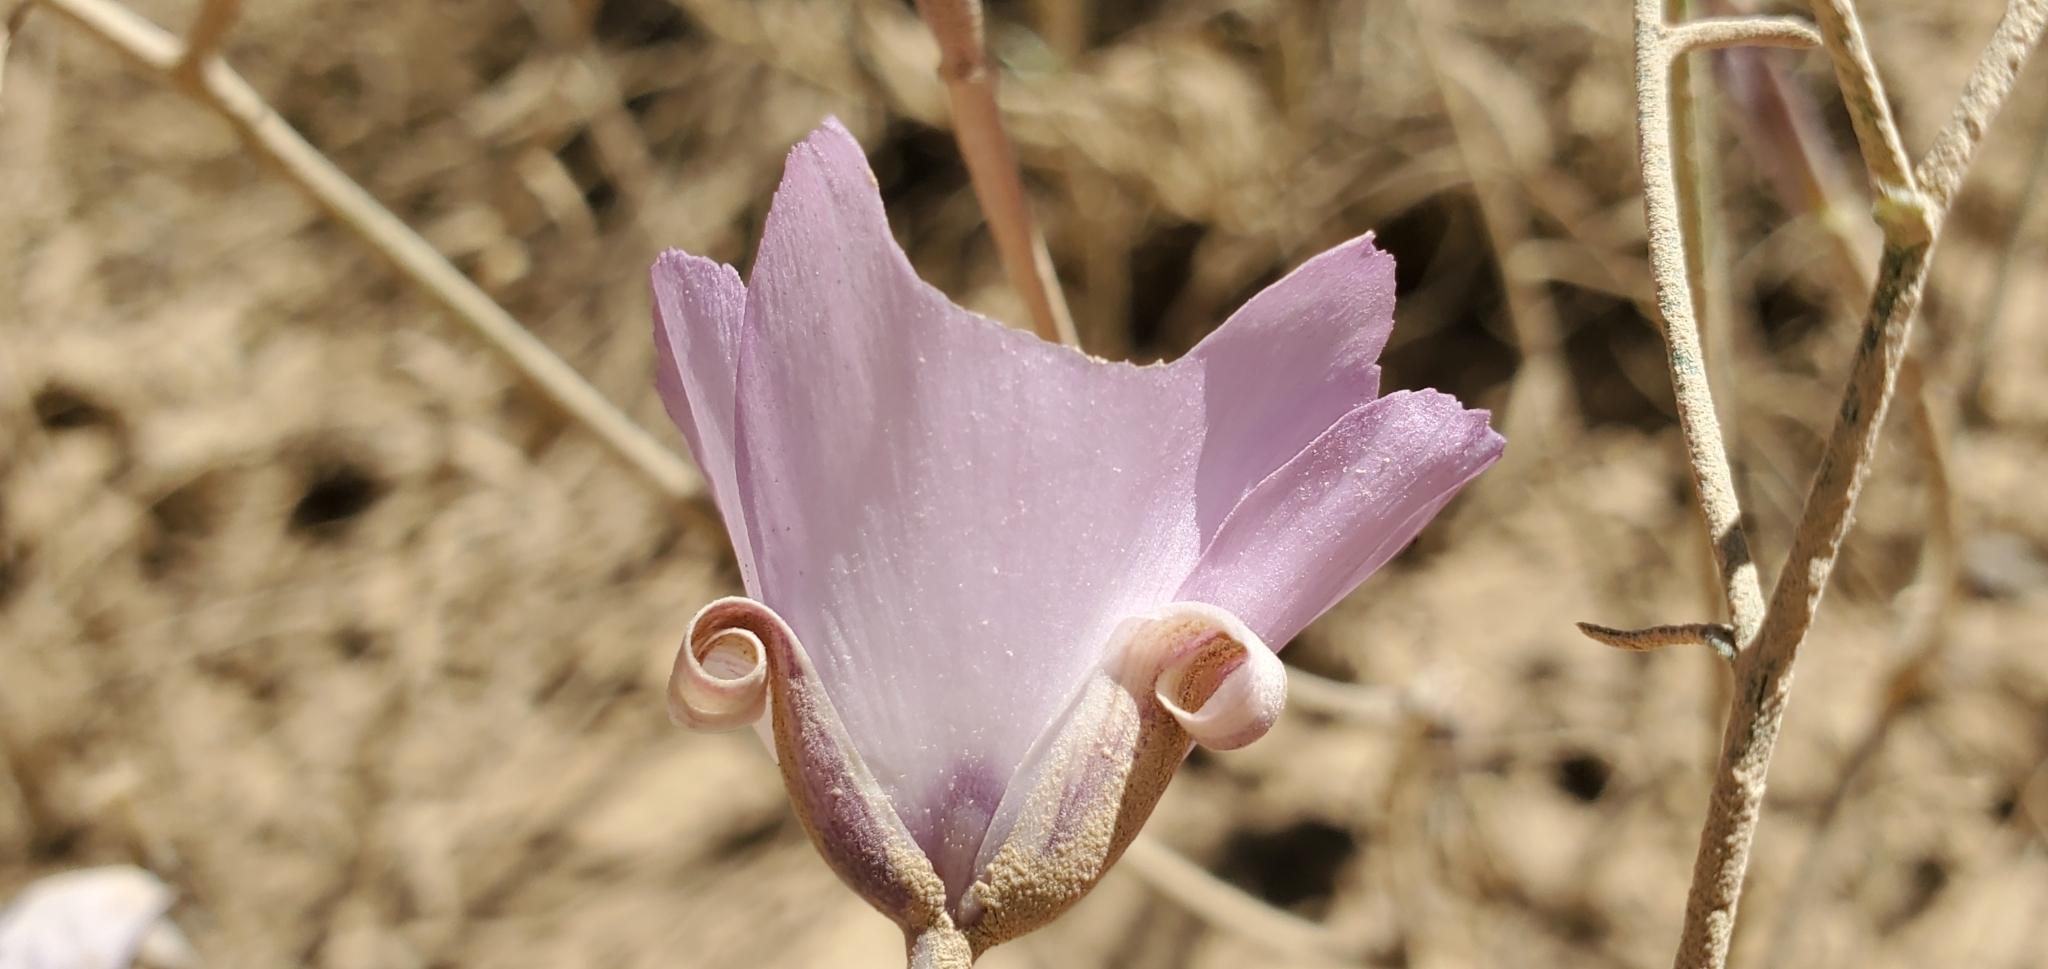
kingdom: Plantae
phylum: Tracheophyta
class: Liliopsida
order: Liliales
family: Liliaceae
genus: Calochortus
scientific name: Calochortus splendens
